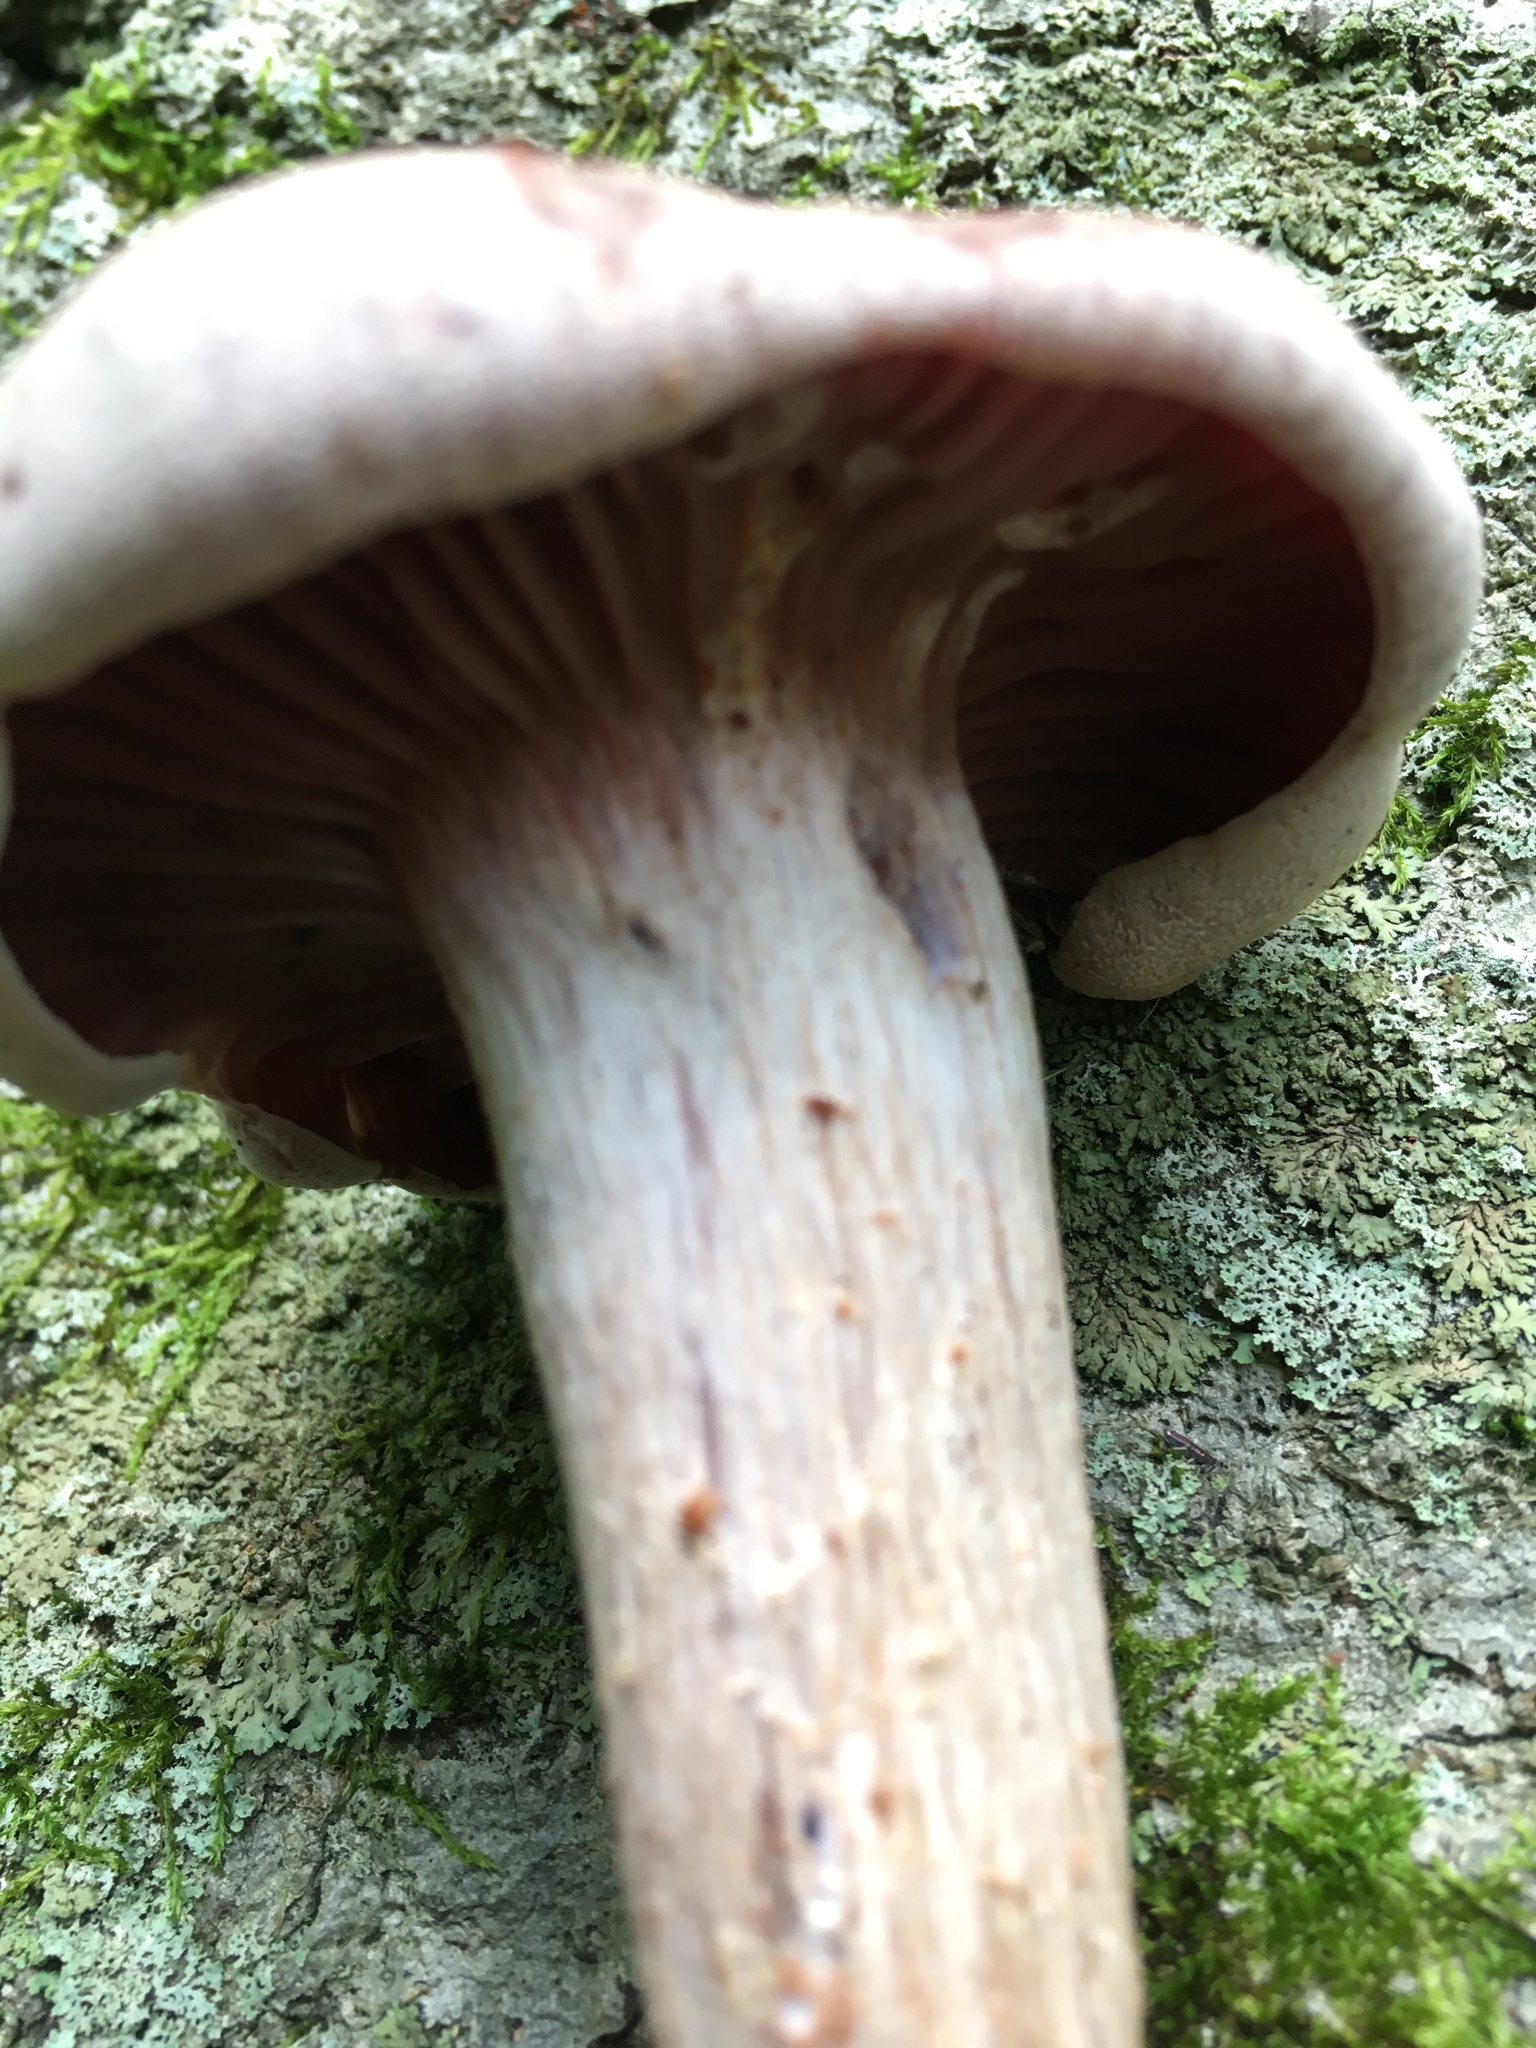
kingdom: Fungi
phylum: Basidiomycota
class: Agaricomycetes
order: Agaricales
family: Hydnangiaceae
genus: Laccaria
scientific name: Laccaria ochropurpurea
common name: Purple laccaria
